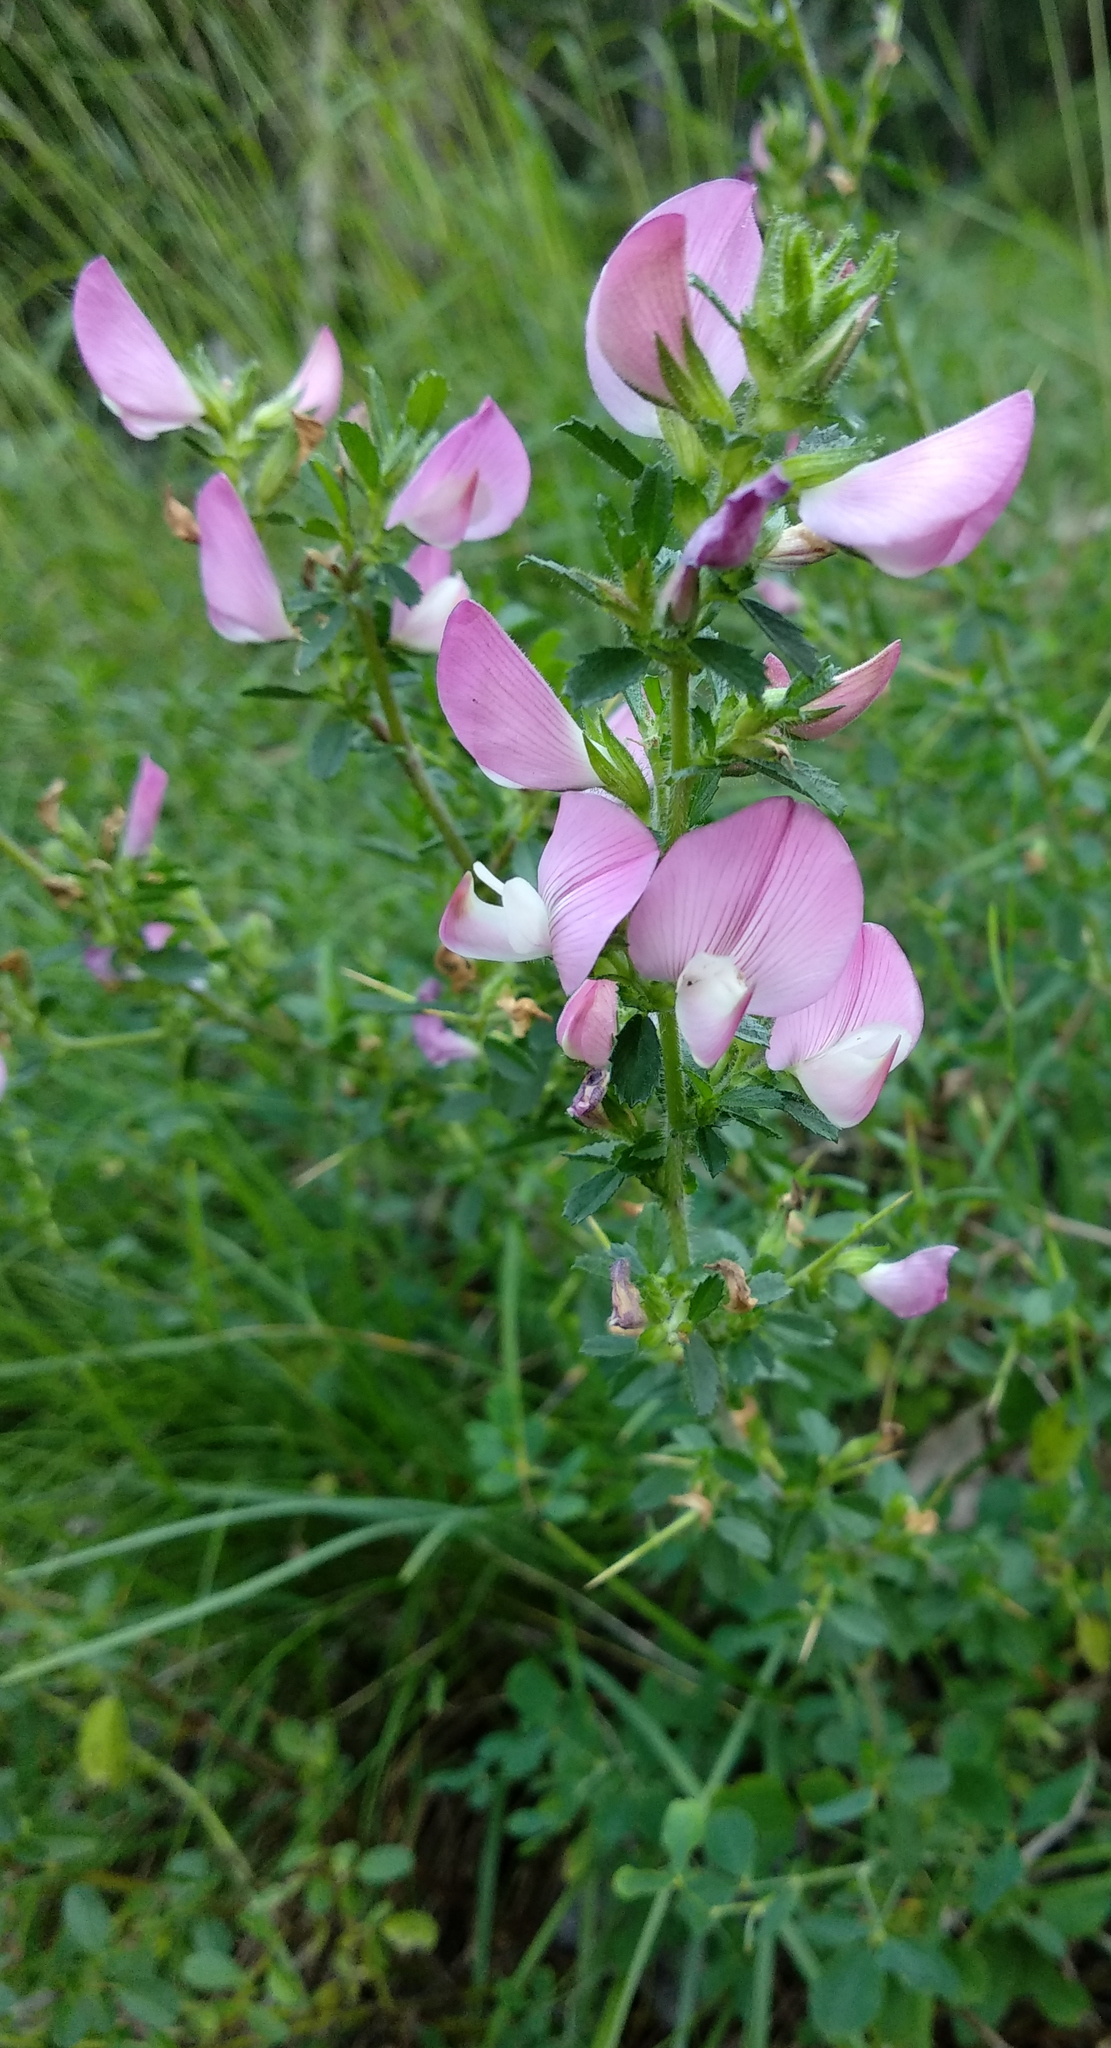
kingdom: Plantae
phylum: Tracheophyta
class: Magnoliopsida
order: Fabales
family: Fabaceae
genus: Ononis
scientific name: Ononis spinosa
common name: Spiny restharrow
